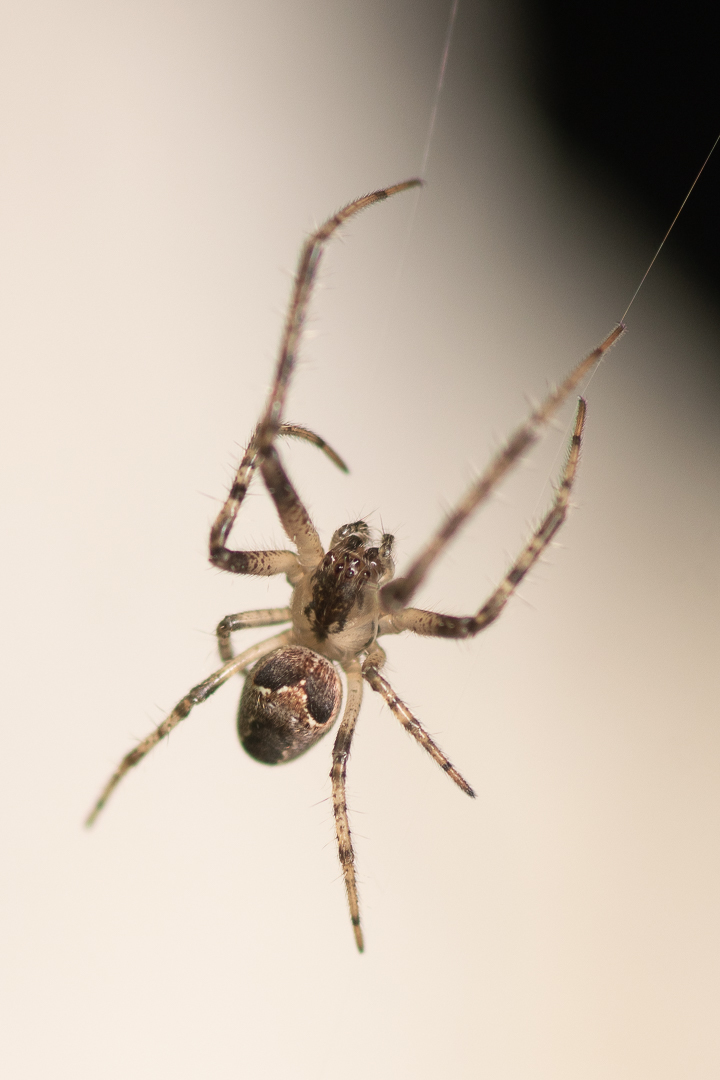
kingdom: Animalia
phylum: Arthropoda
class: Arachnida
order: Araneae
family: Tetragnathidae
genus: Allende
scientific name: Allende nigrohumeralis
